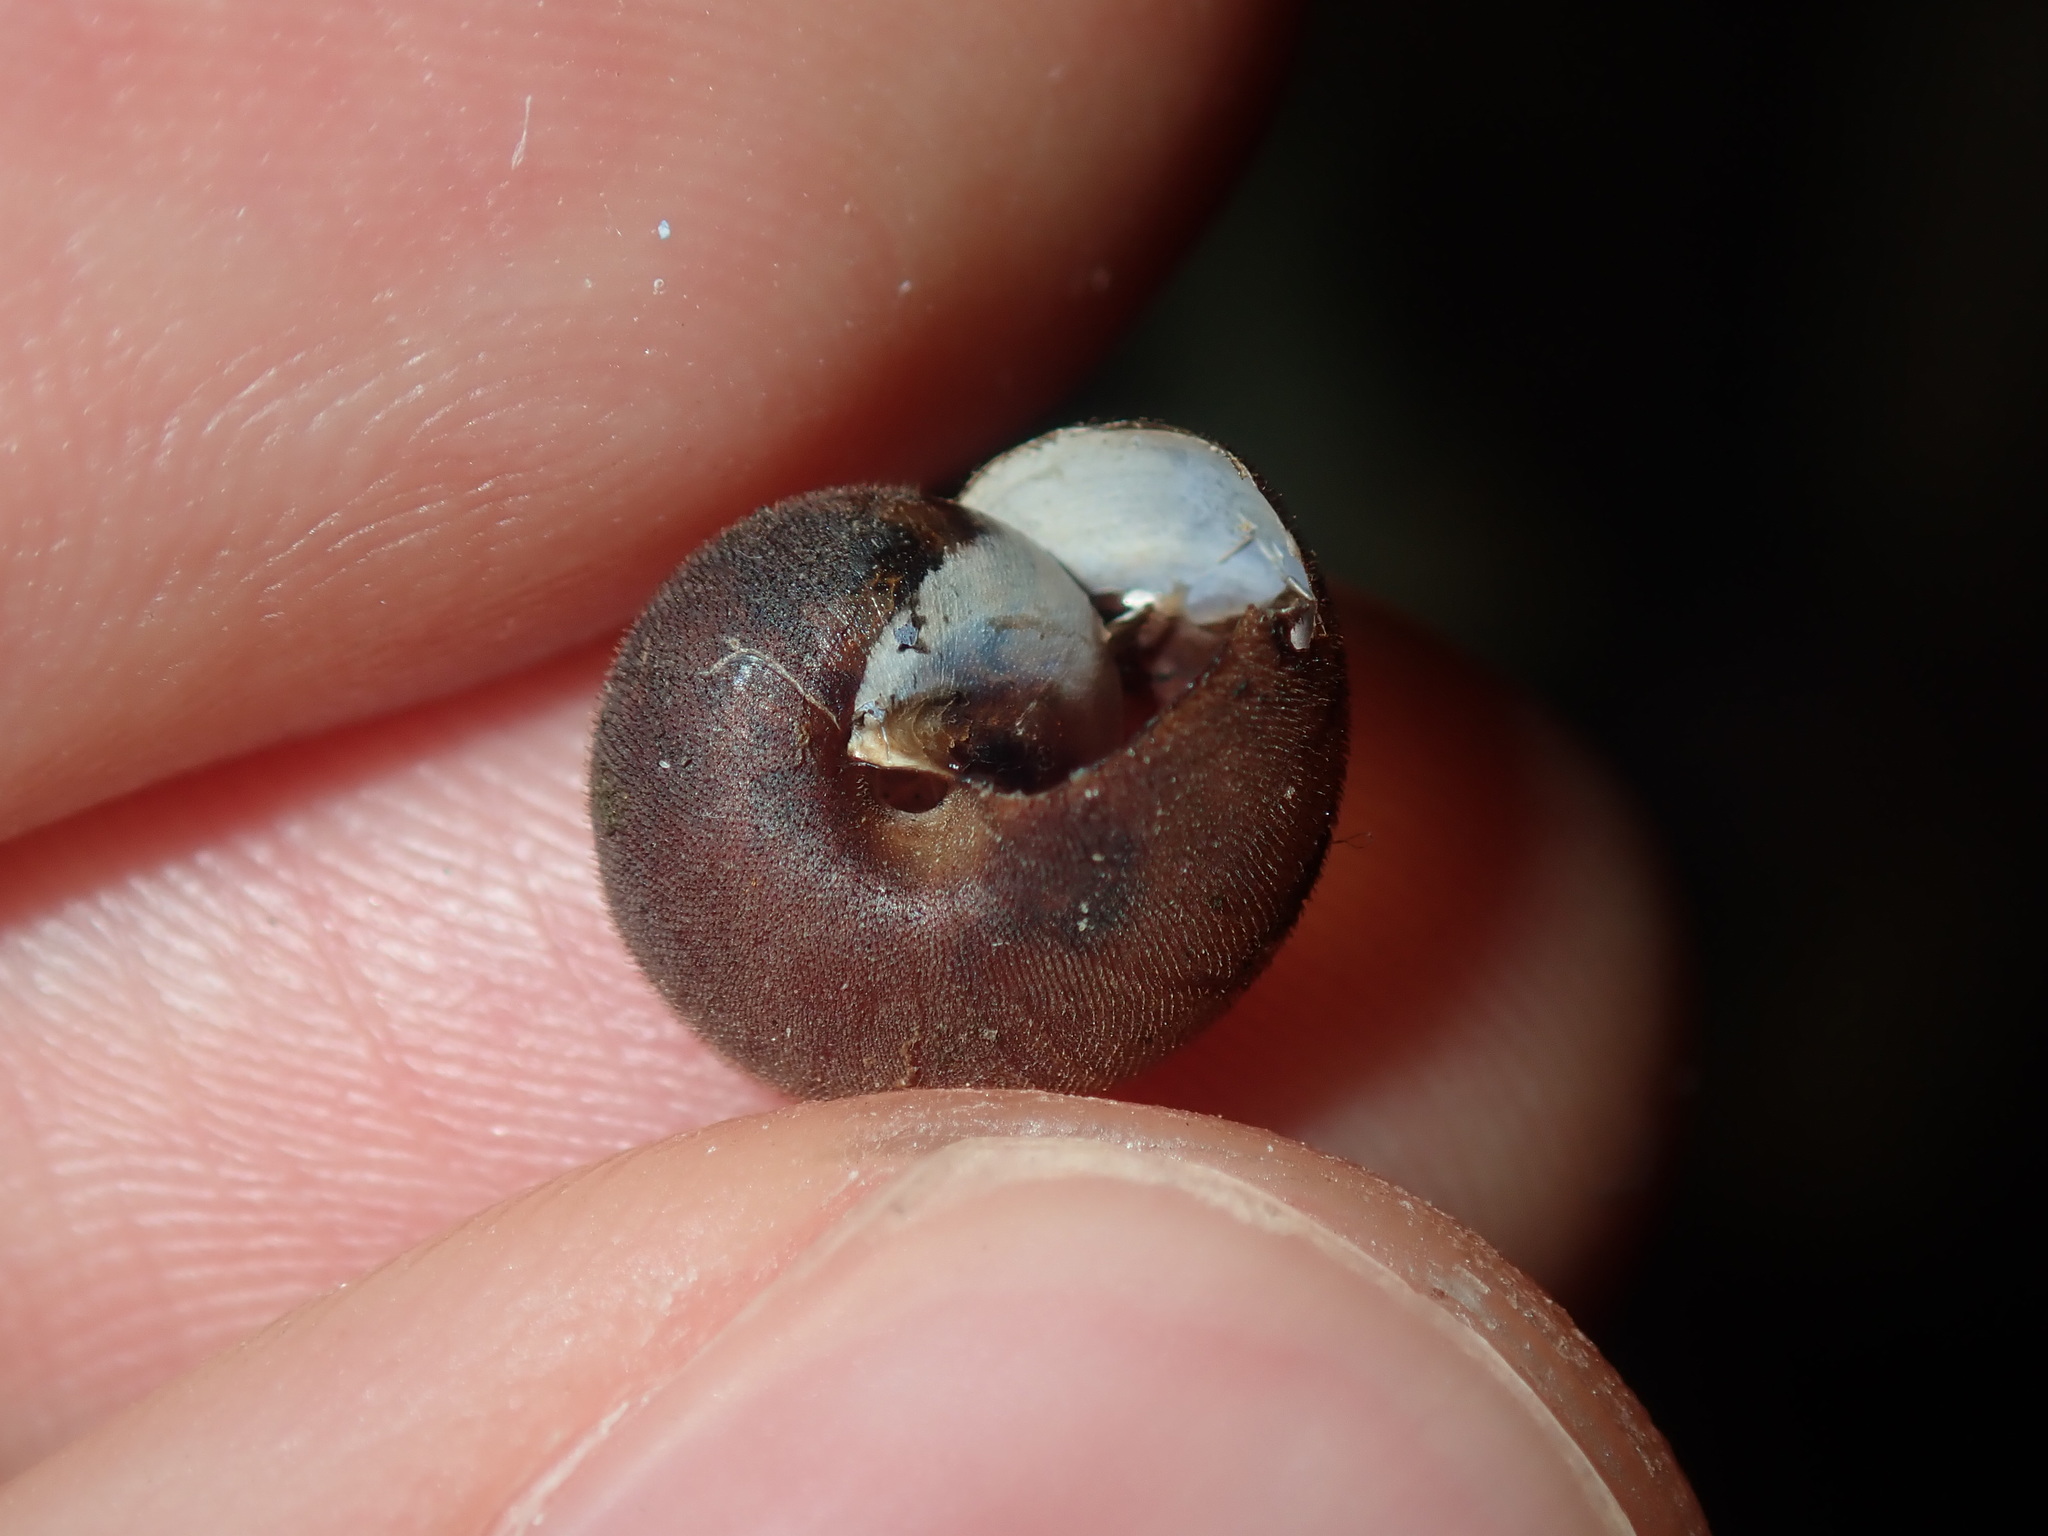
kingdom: Animalia
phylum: Mollusca
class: Gastropoda
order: Stylommatophora
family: Camaenidae
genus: Austrochloritis
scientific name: Austrochloritis laurieton
